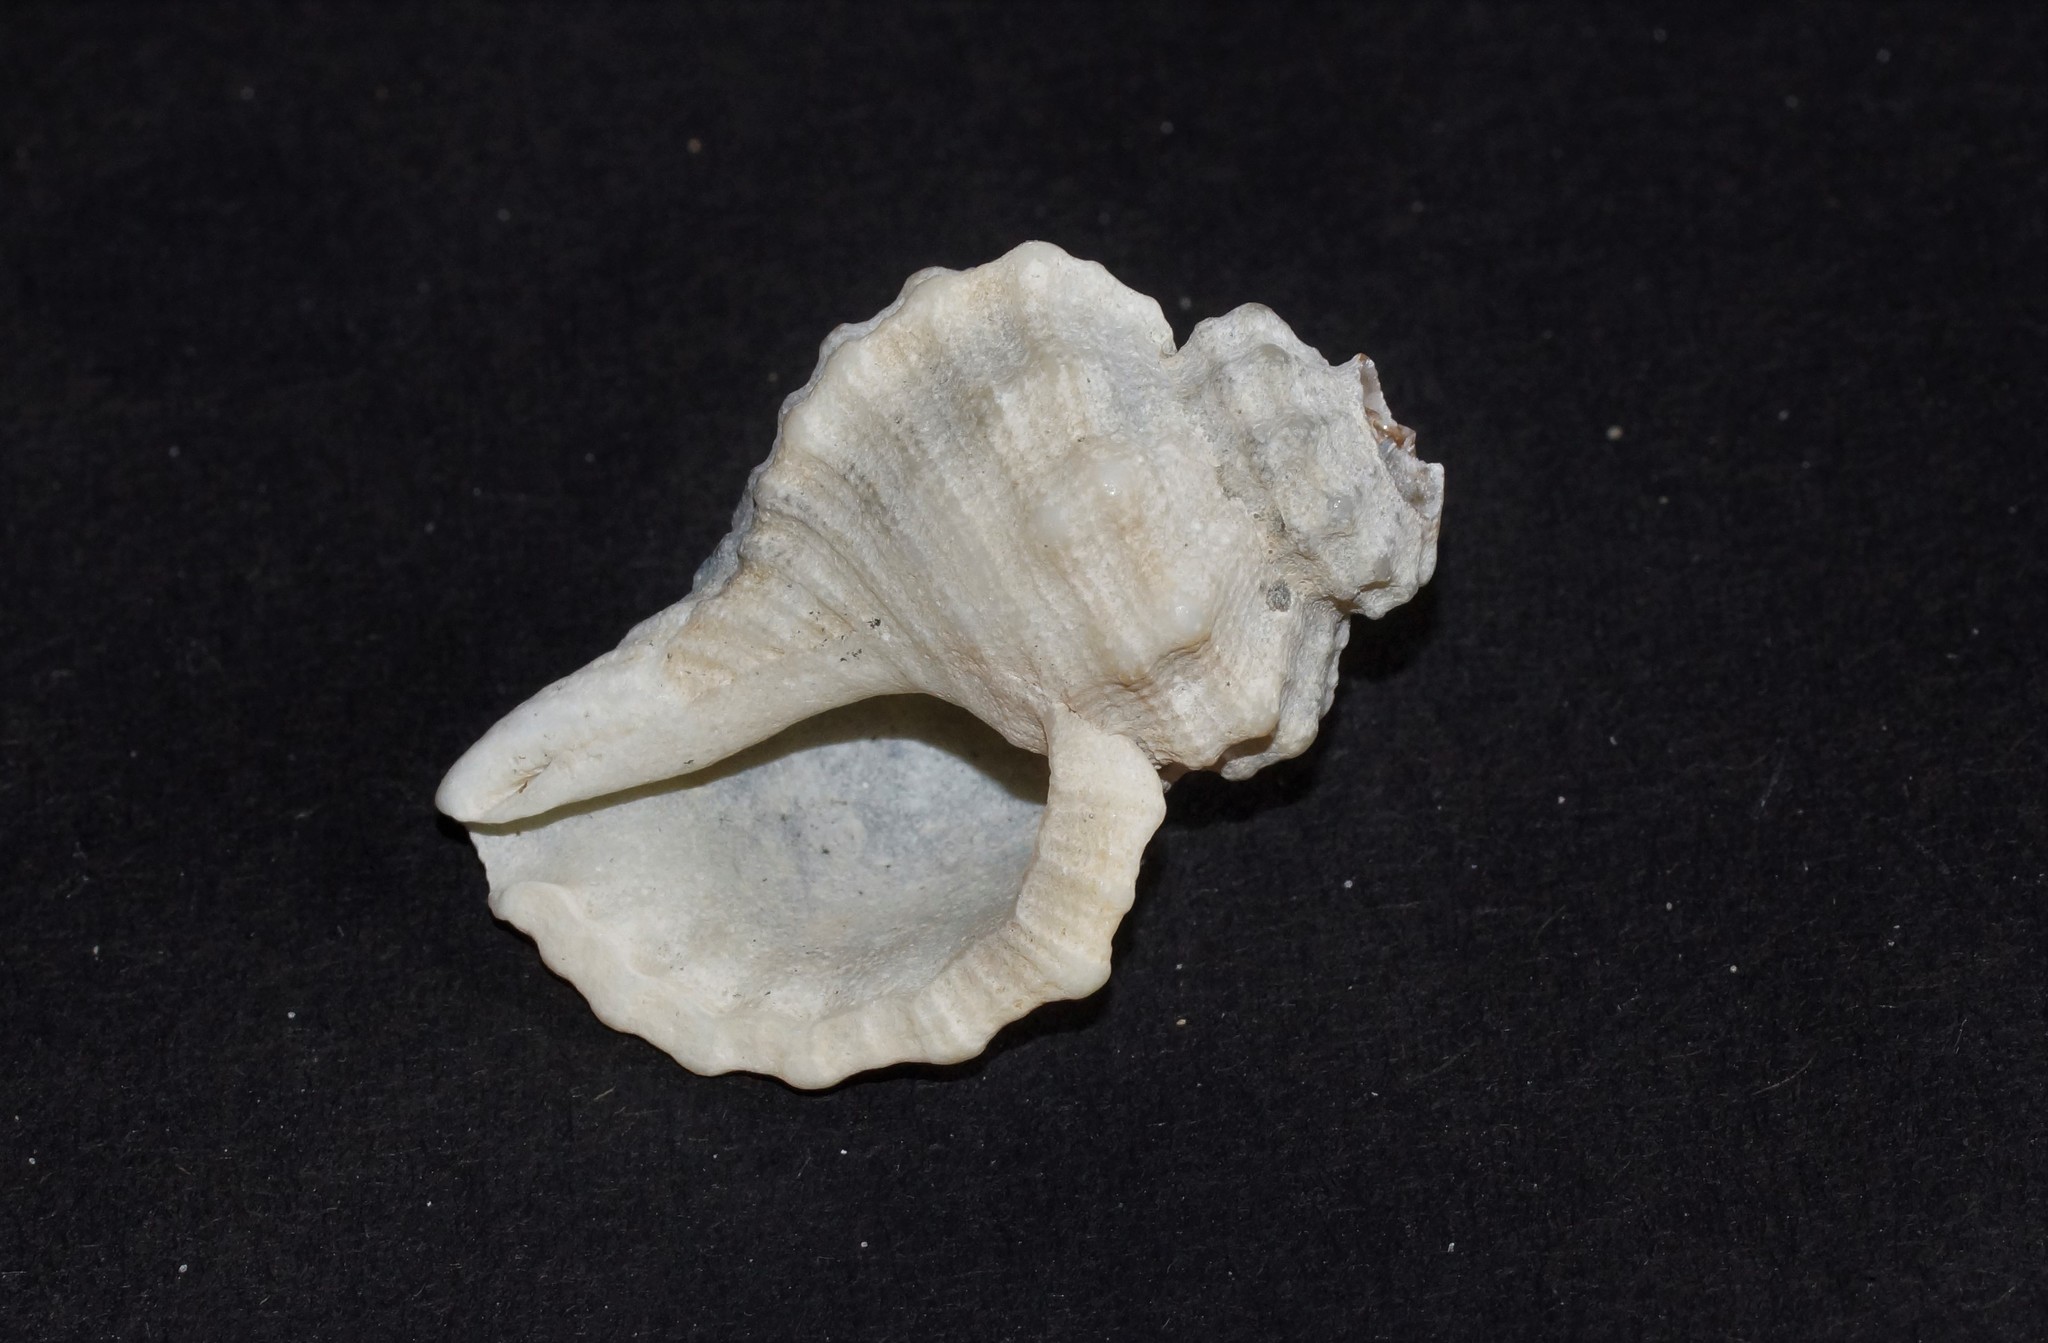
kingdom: Animalia
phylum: Mollusca
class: Gastropoda
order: Littorinimorpha
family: Cymatiidae
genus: Cabestana
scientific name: Cabestana tabulata
